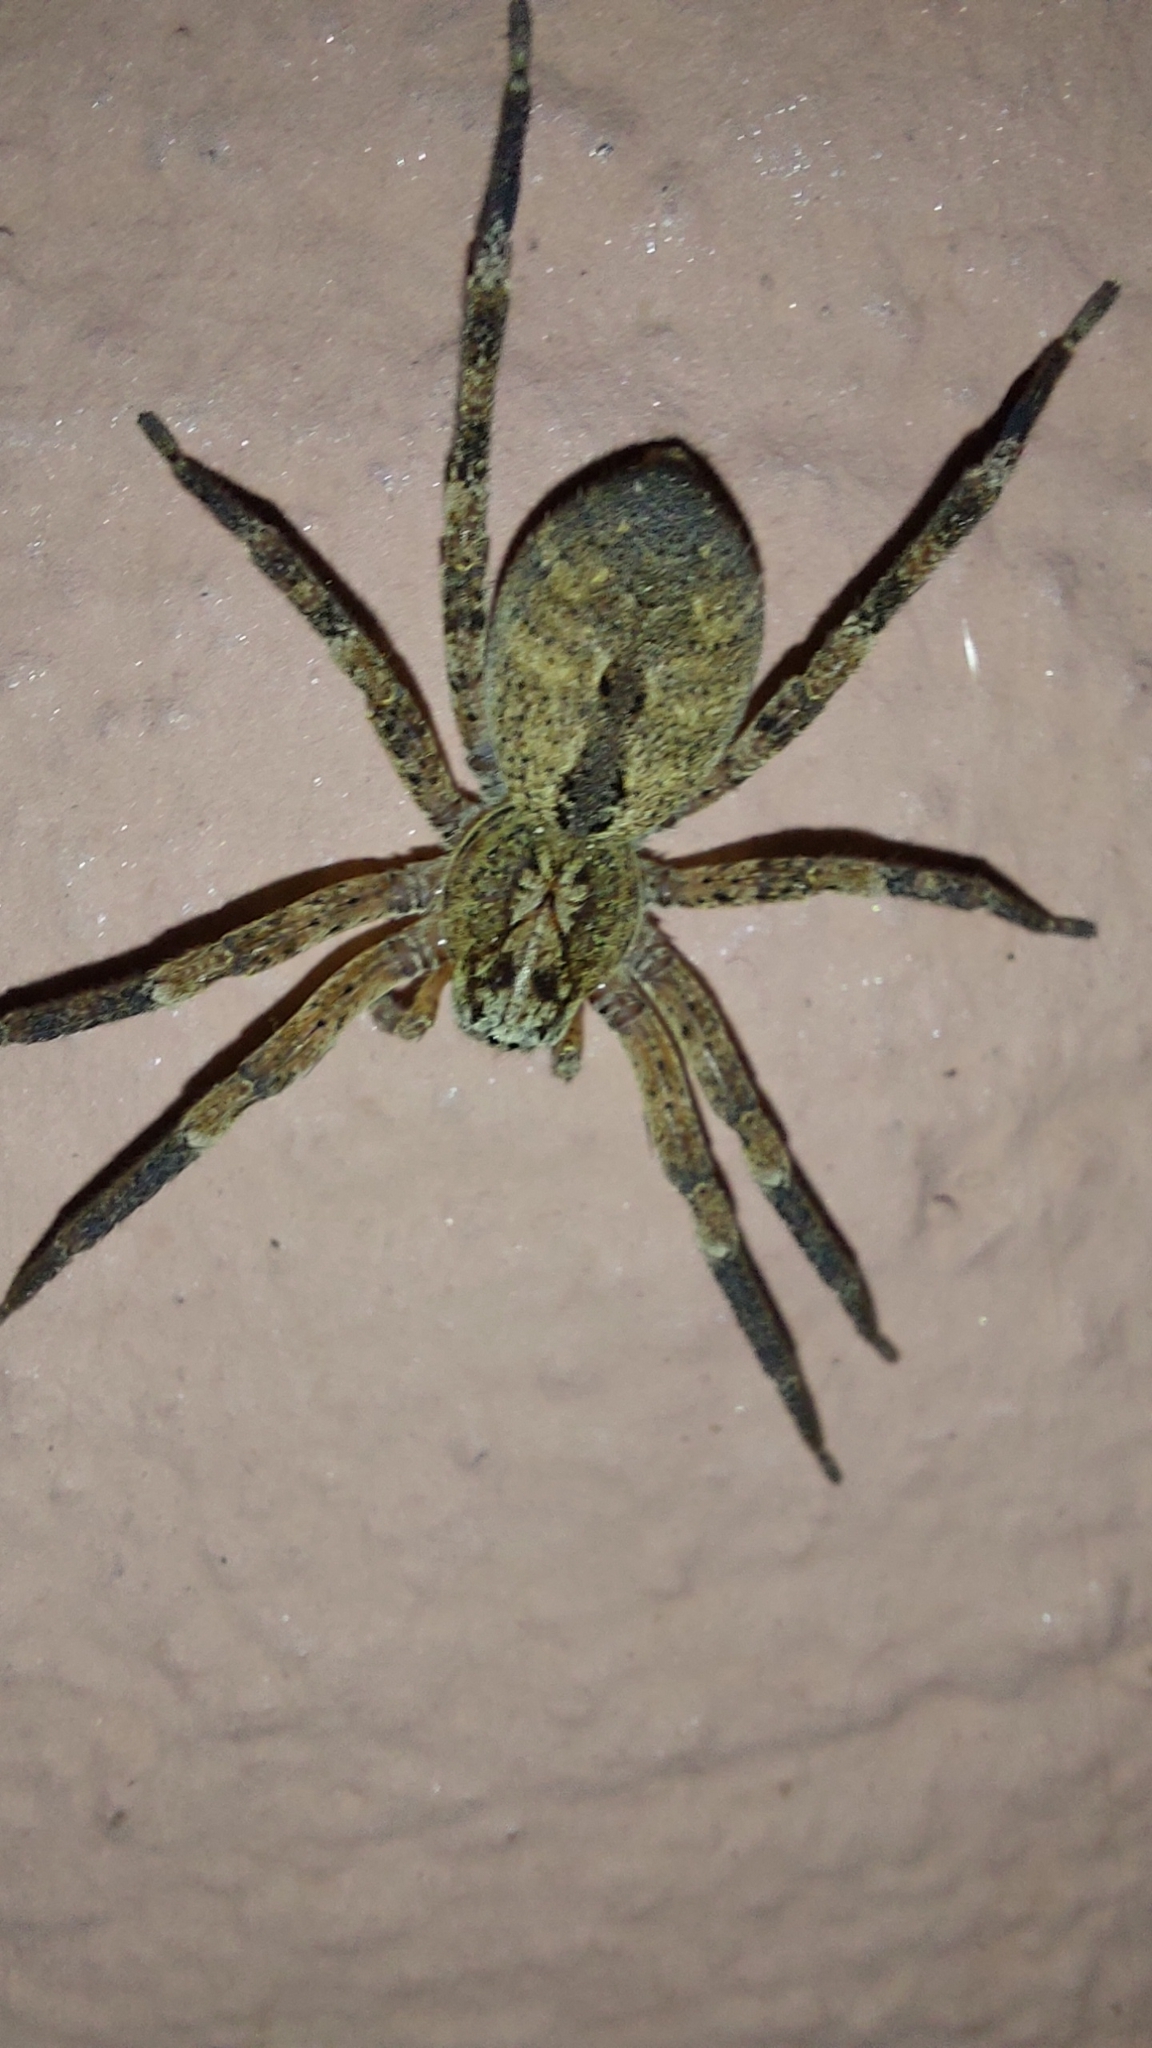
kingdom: Animalia
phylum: Arthropoda
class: Arachnida
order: Araneae
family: Zoropsidae
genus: Zoropsis
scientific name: Zoropsis spinimana
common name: Zoropsid spider
